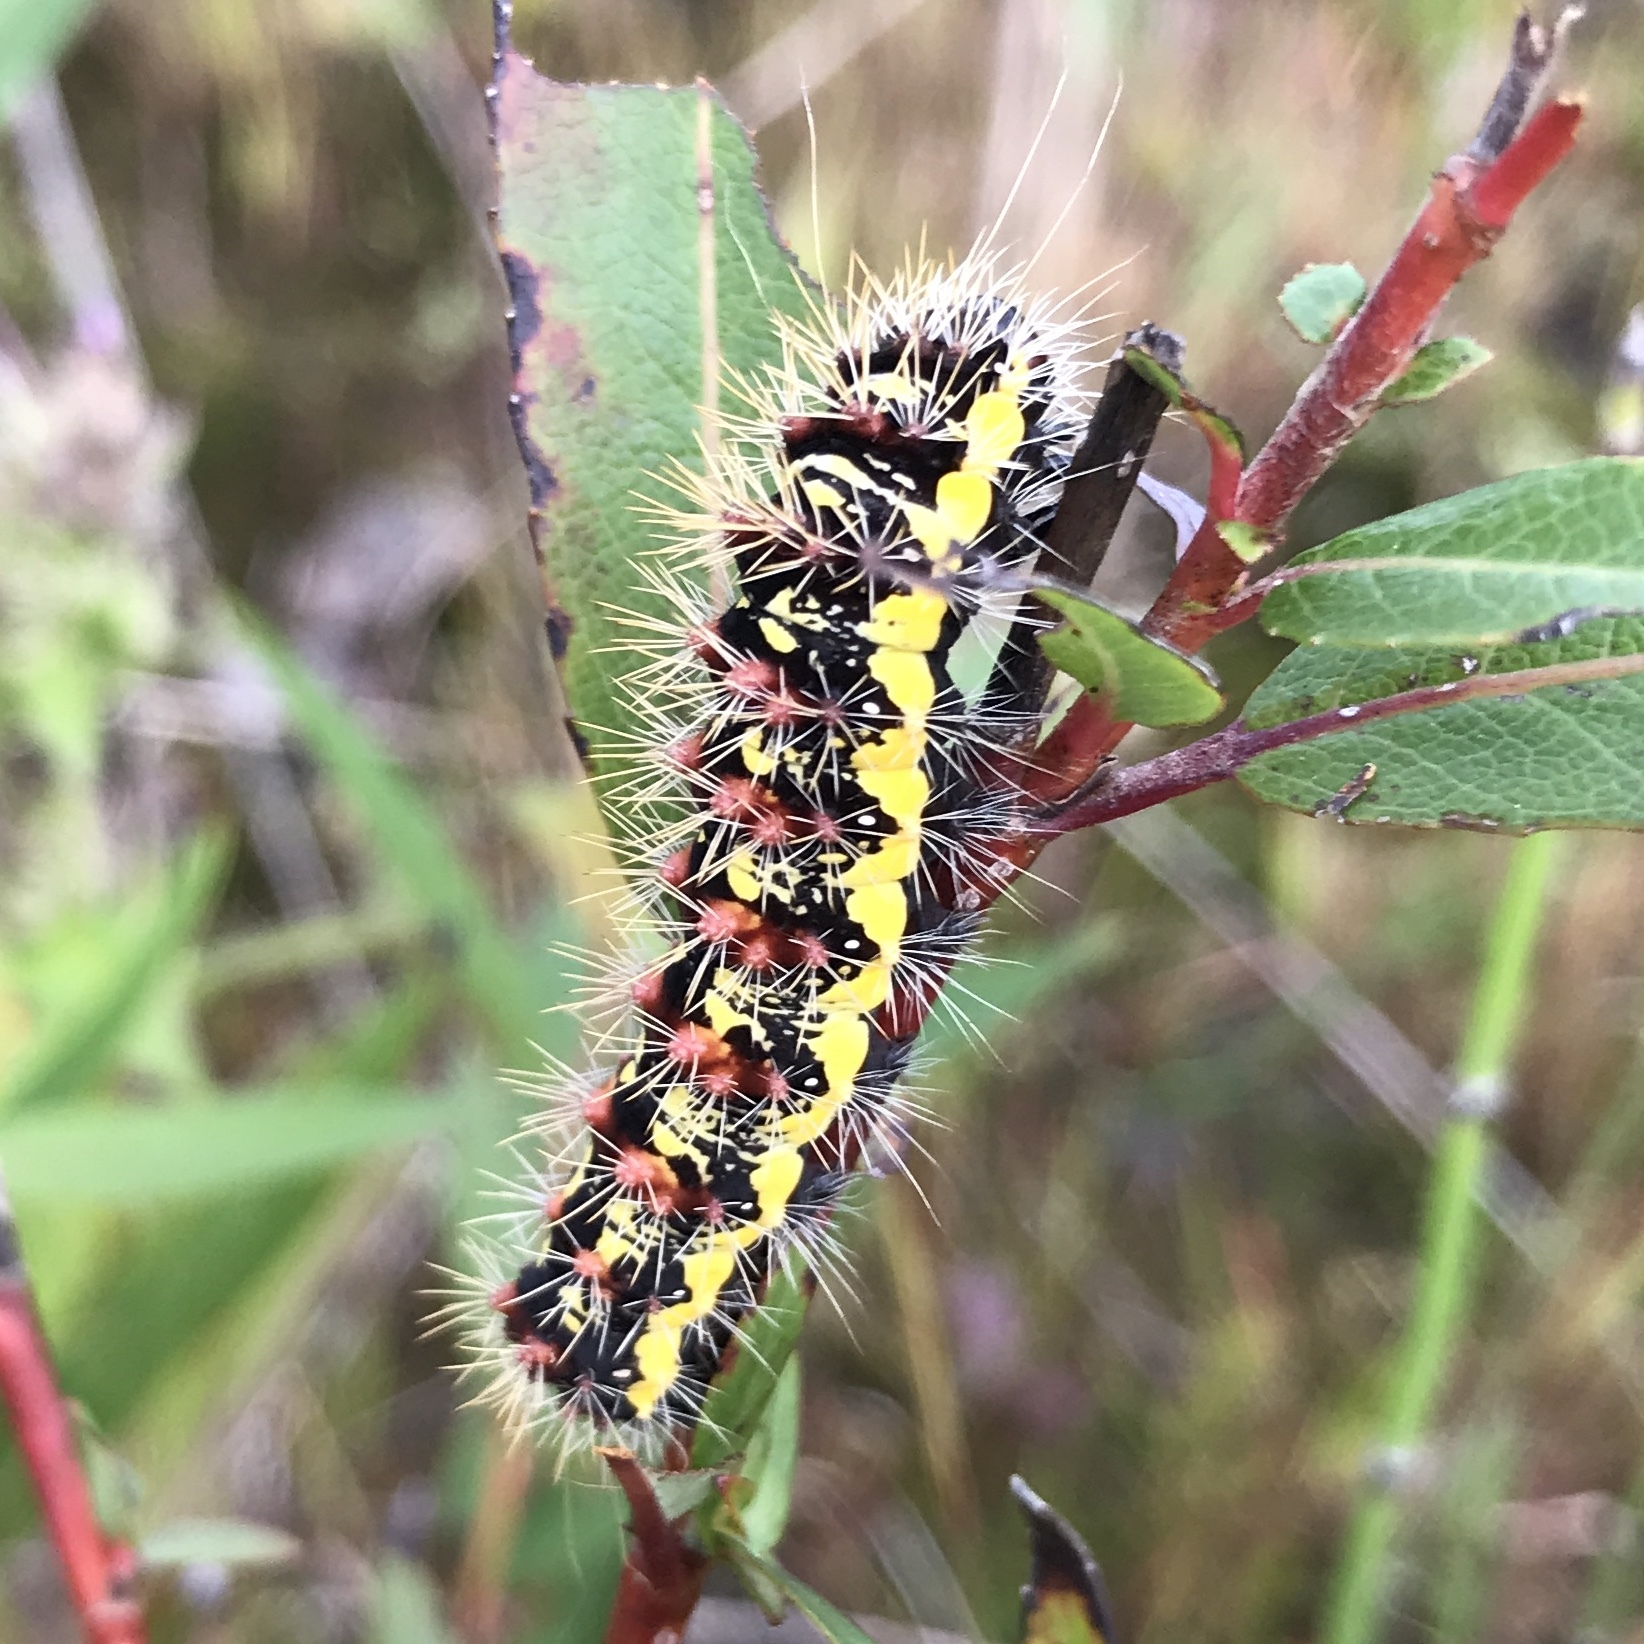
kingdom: Animalia
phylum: Arthropoda
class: Insecta
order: Lepidoptera
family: Noctuidae
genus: Acronicta
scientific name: Acronicta oblinita
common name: Smeared dagger
